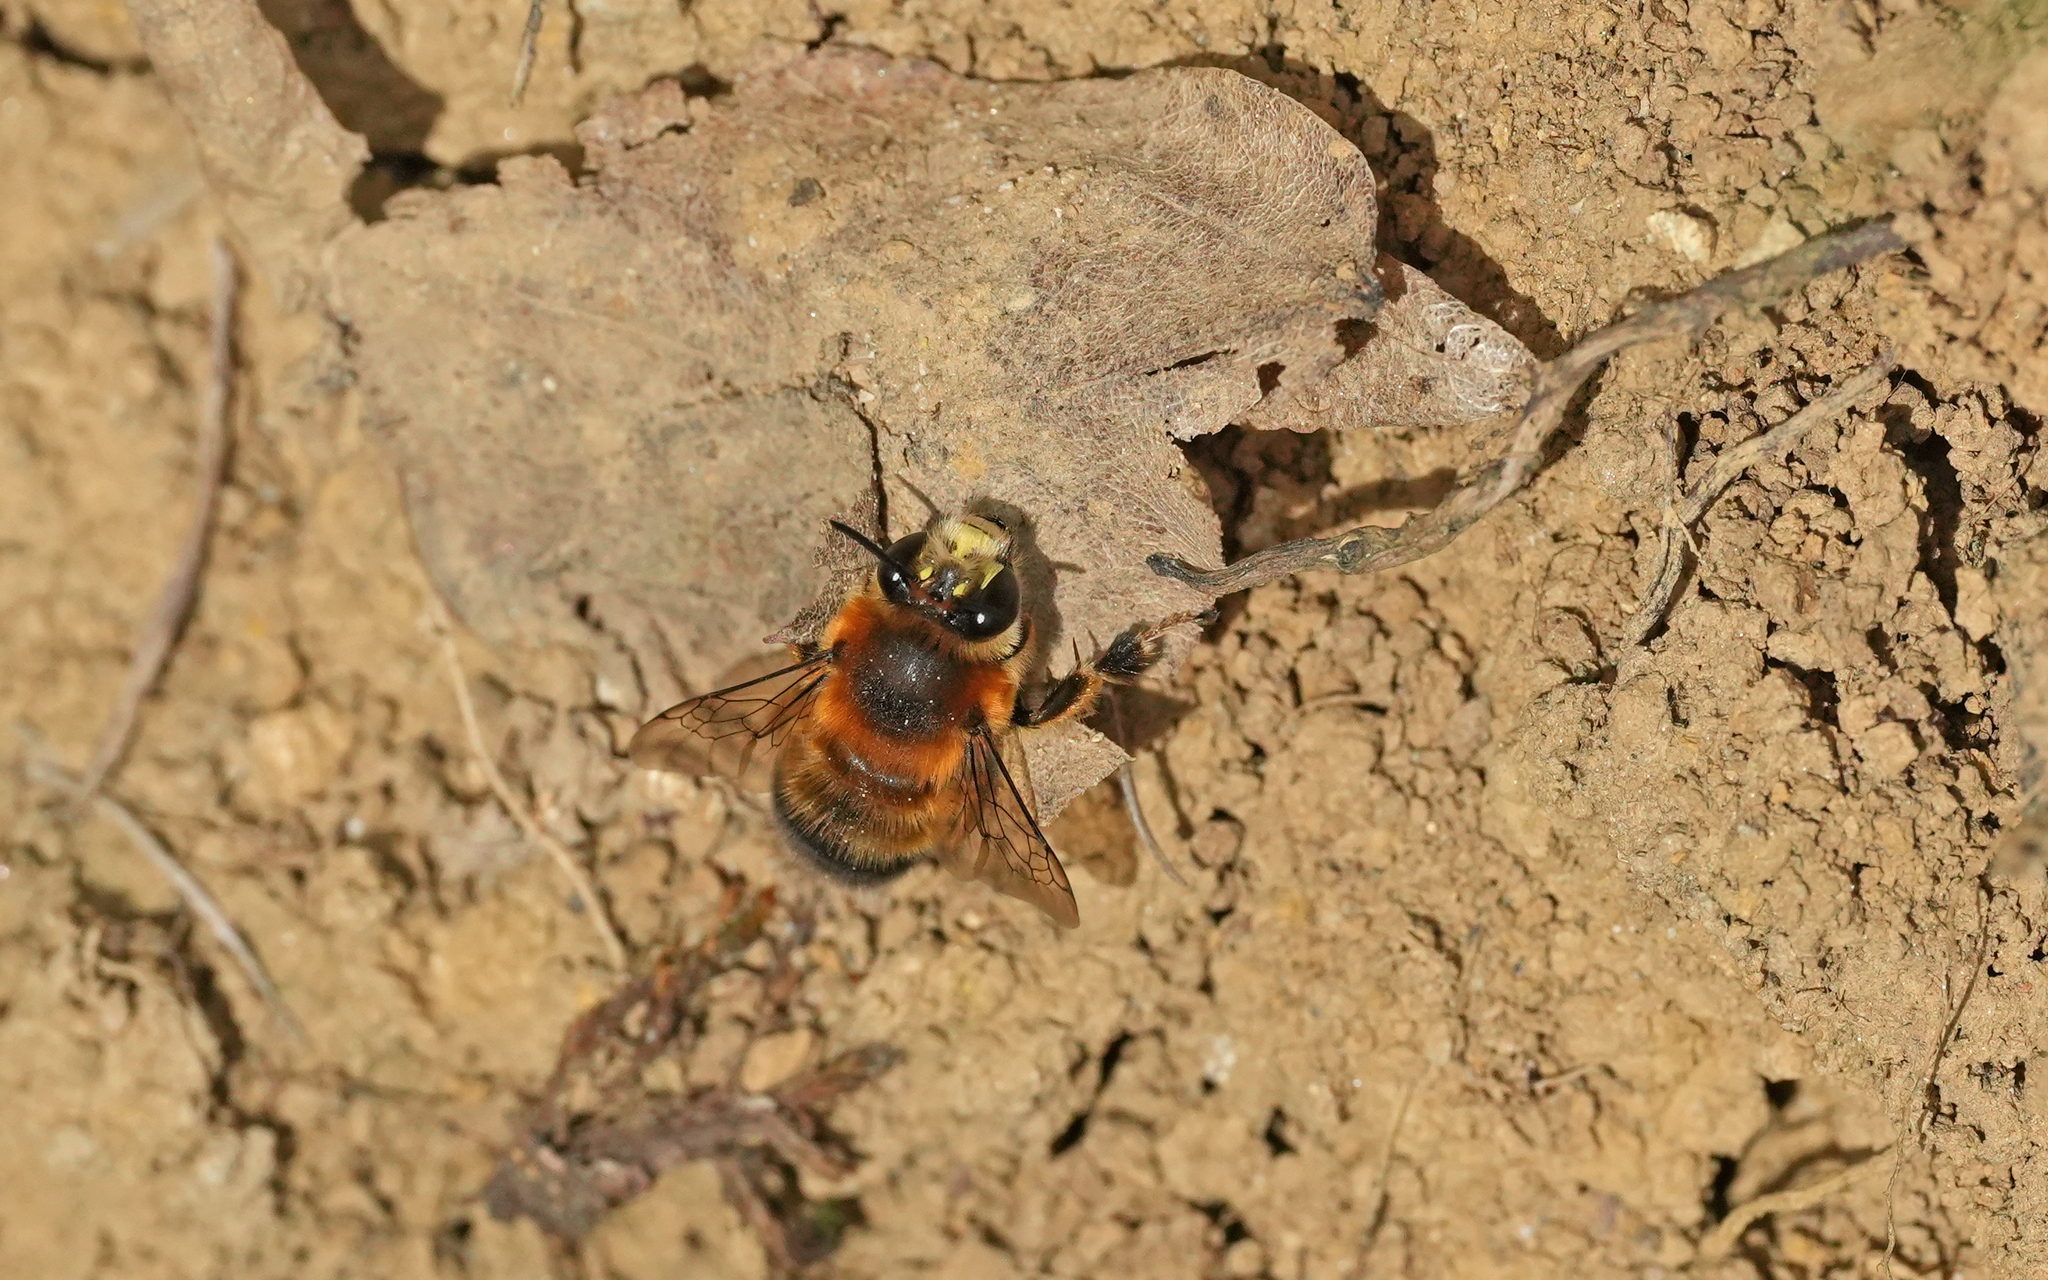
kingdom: Animalia
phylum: Arthropoda
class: Insecta
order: Hymenoptera
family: Apidae
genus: Anthophora
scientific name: Anthophora aestivalis
